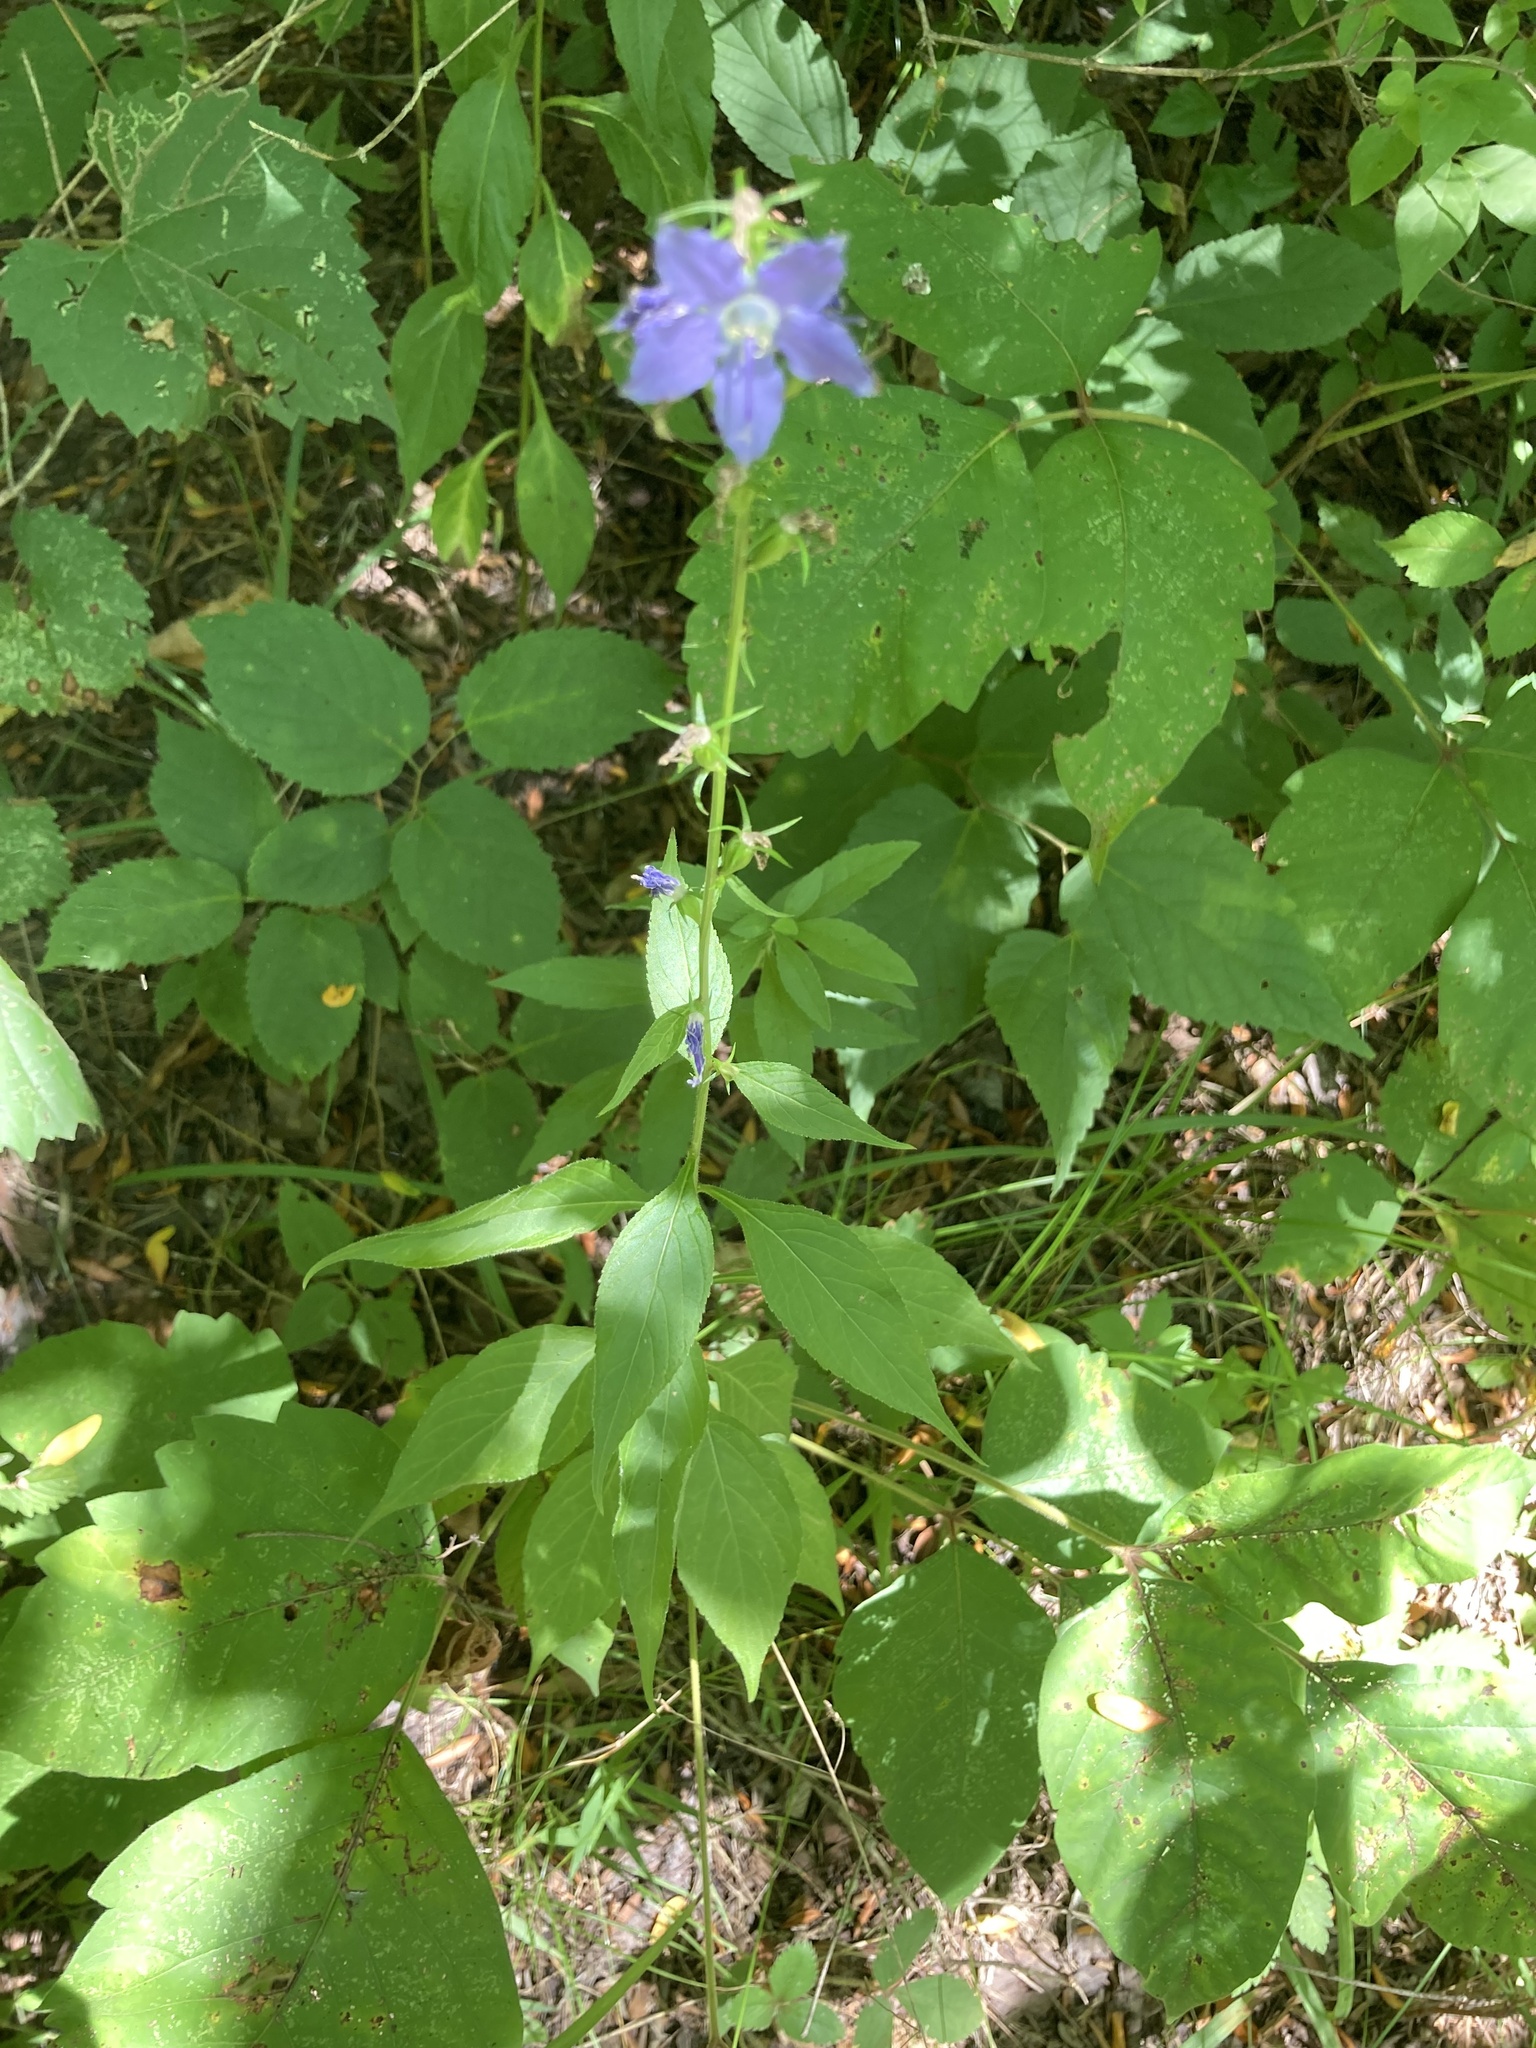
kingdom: Plantae
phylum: Tracheophyta
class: Magnoliopsida
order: Asterales
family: Campanulaceae
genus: Campanulastrum
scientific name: Campanulastrum americanum
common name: American bellflower
